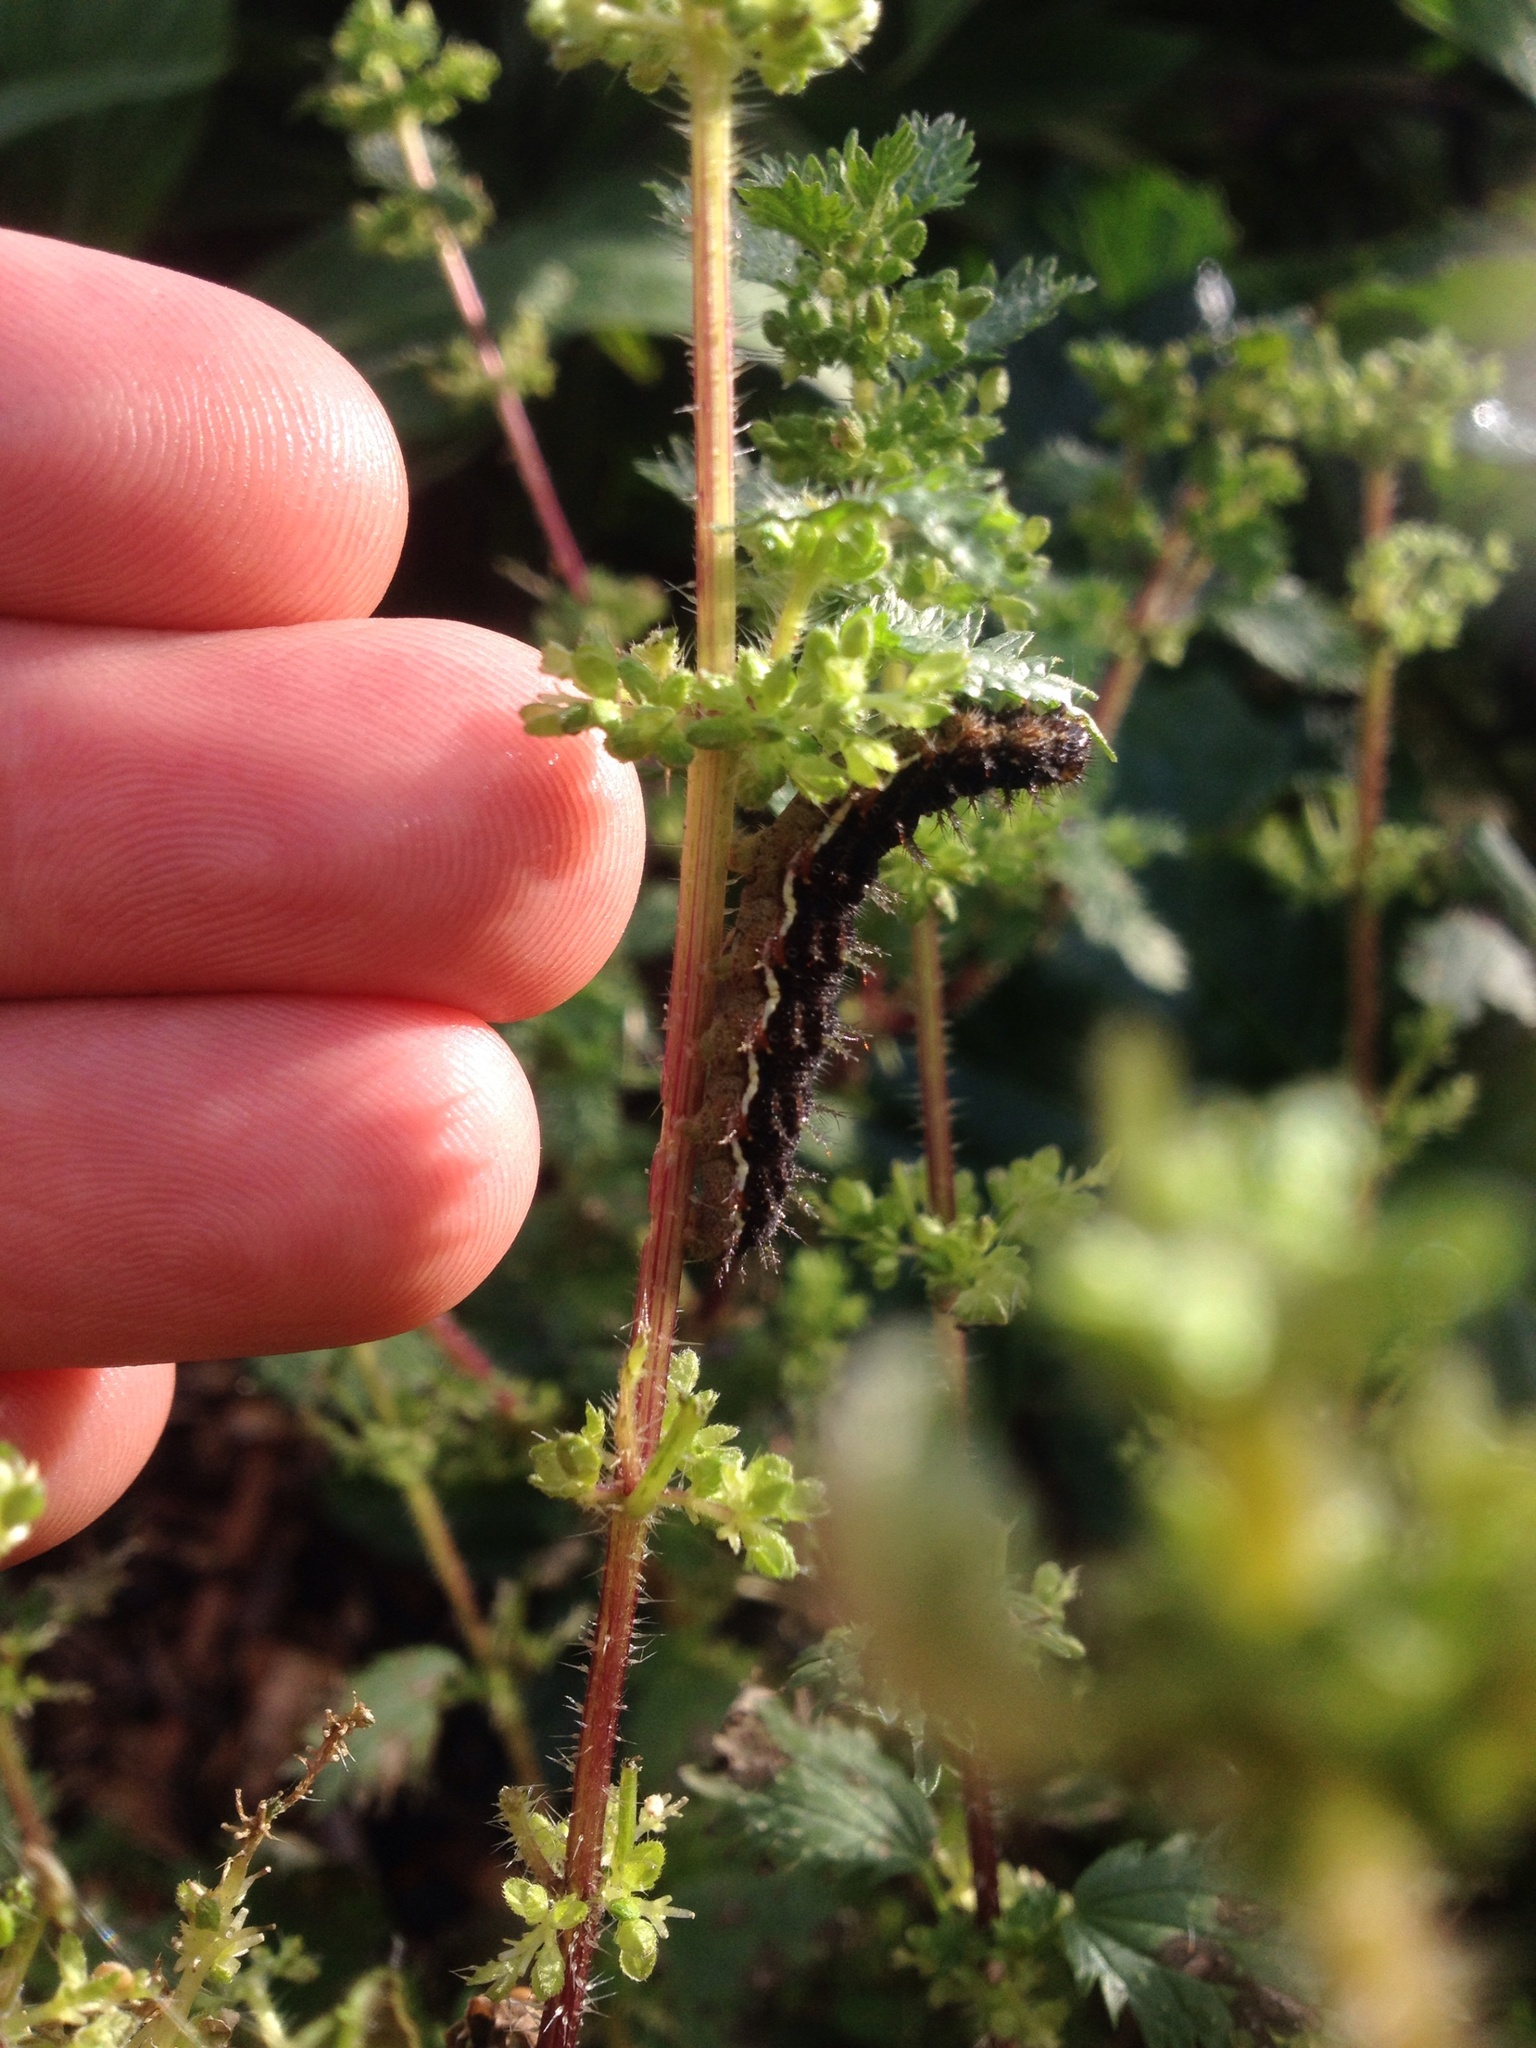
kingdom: Animalia
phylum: Arthropoda
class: Insecta
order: Lepidoptera
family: Nymphalidae
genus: Vanessa
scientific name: Vanessa itea
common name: Yellow admiral
